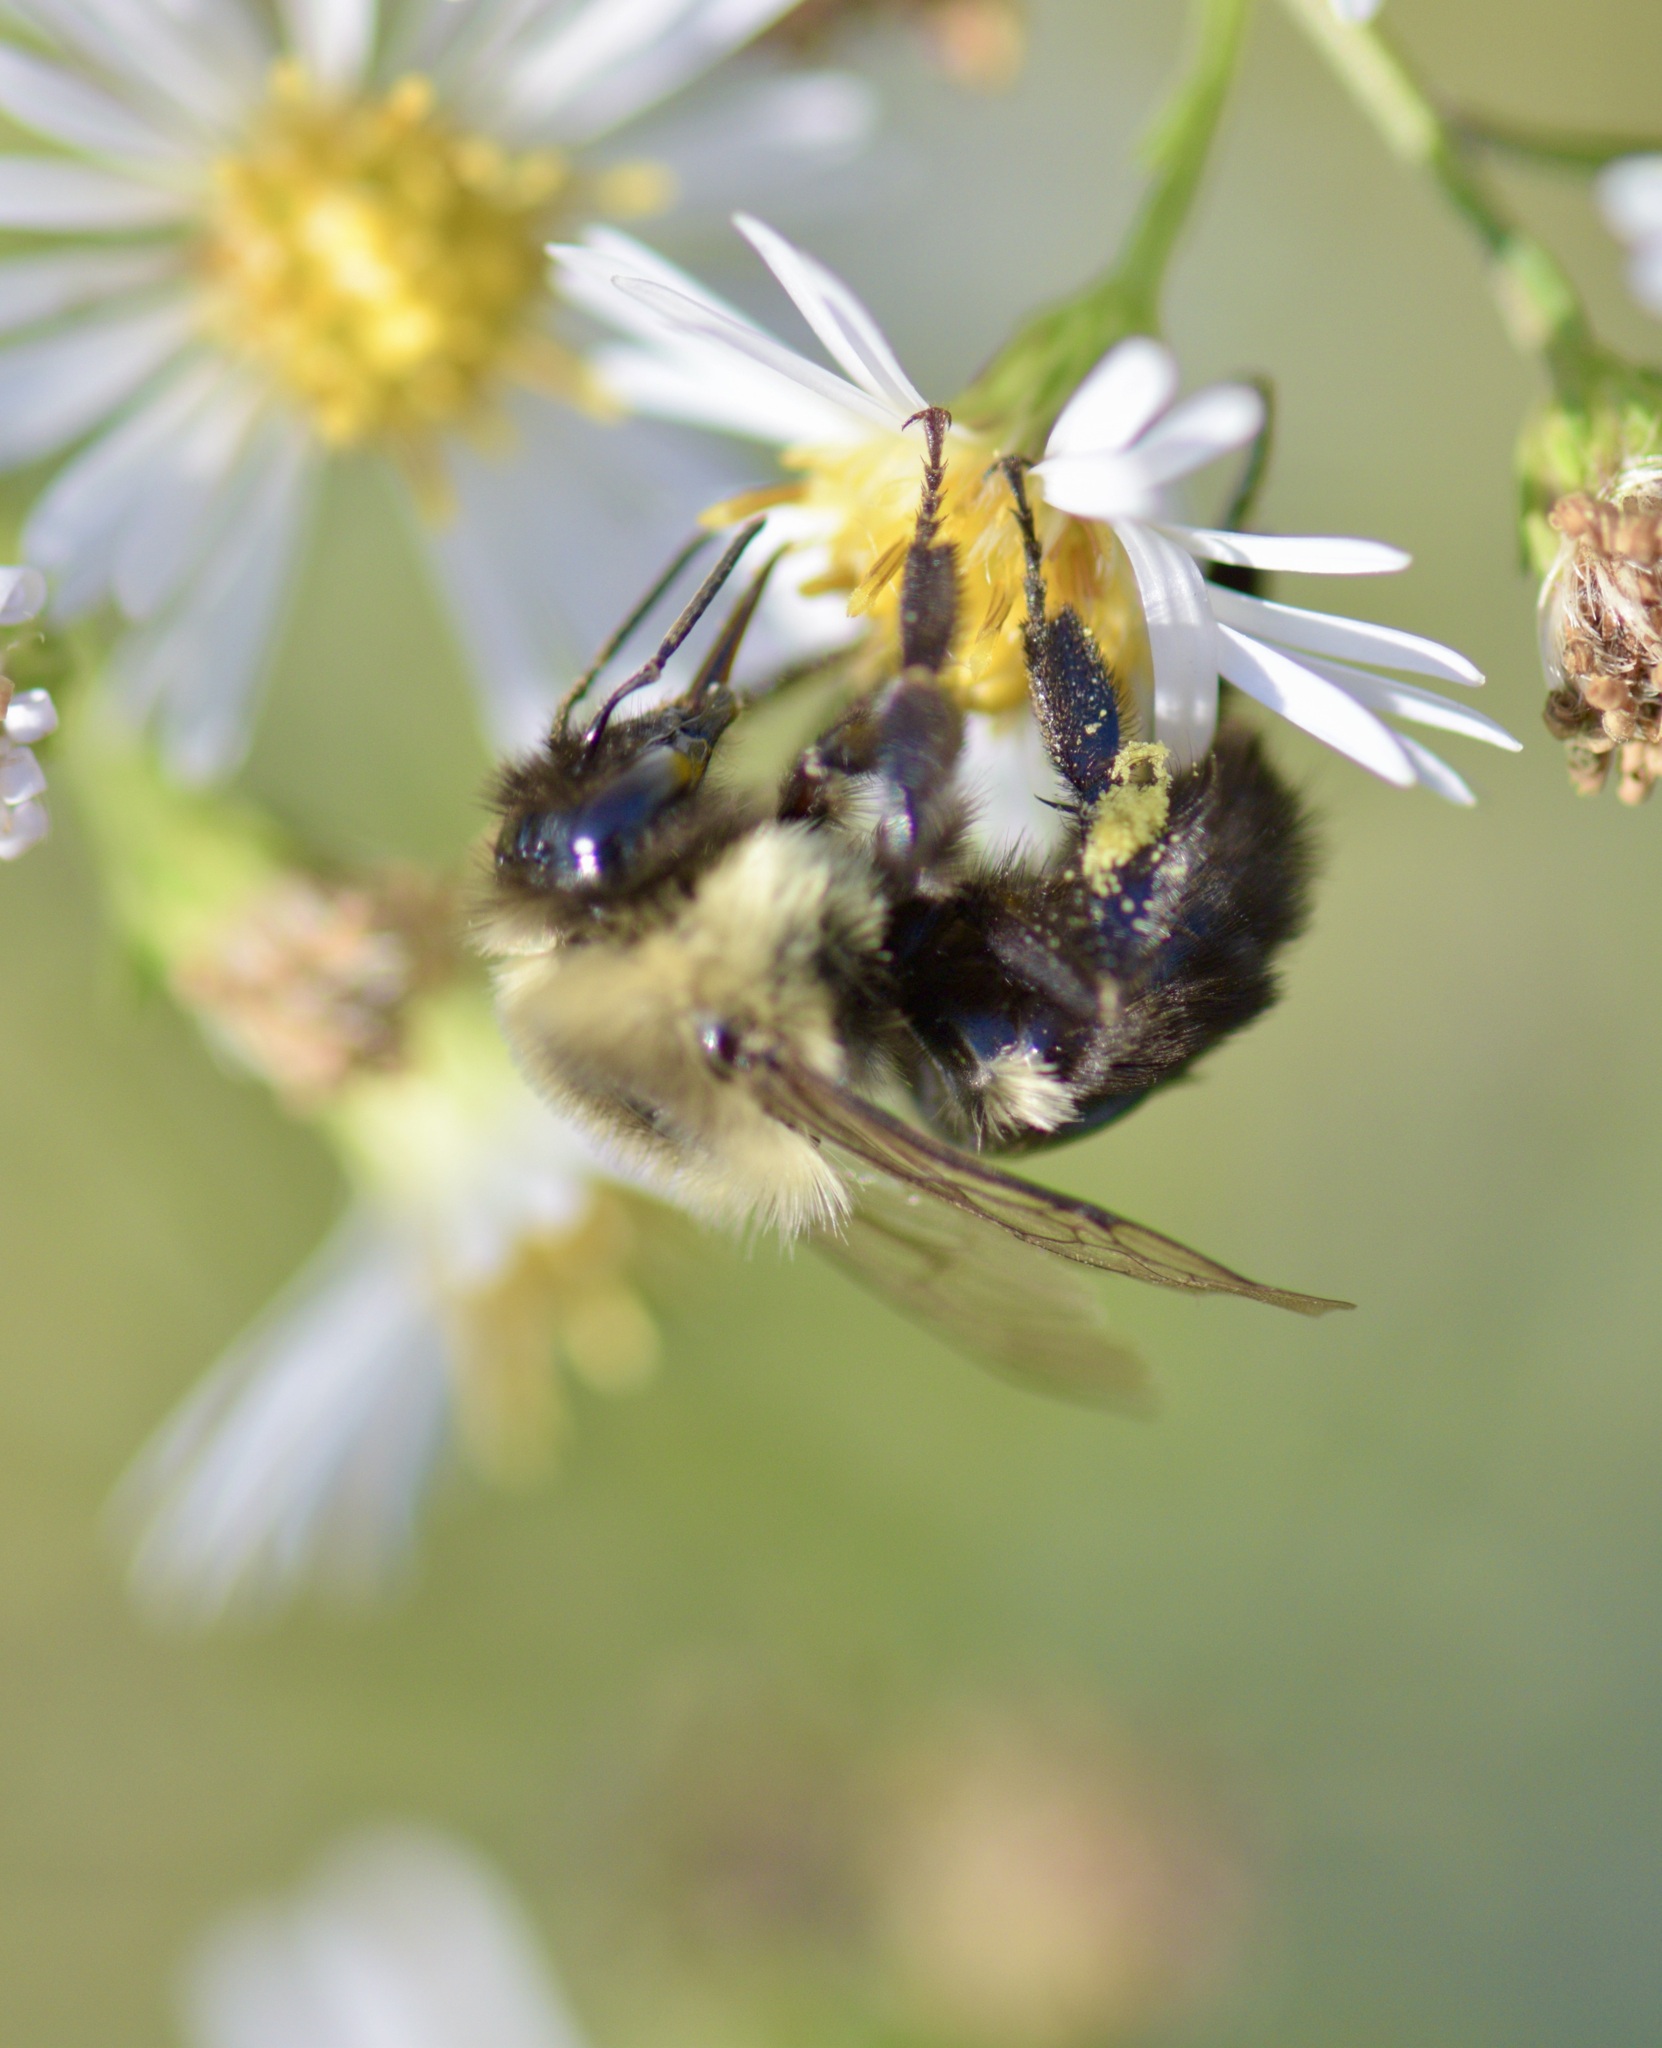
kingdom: Animalia
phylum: Arthropoda
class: Insecta
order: Hymenoptera
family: Apidae
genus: Bombus
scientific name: Bombus impatiens
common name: Common eastern bumble bee
